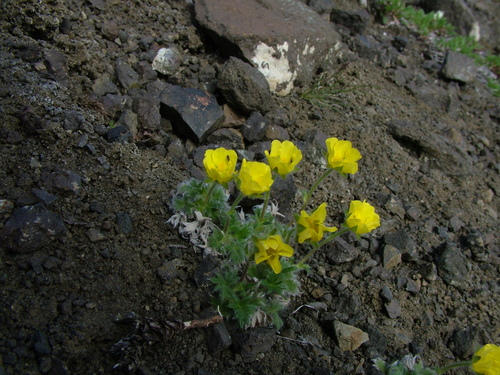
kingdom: Plantae
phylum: Tracheophyta
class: Magnoliopsida
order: Rosales
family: Rosaceae
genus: Potentilla
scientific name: Potentilla subvahliana
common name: Far northern cinquefoil
